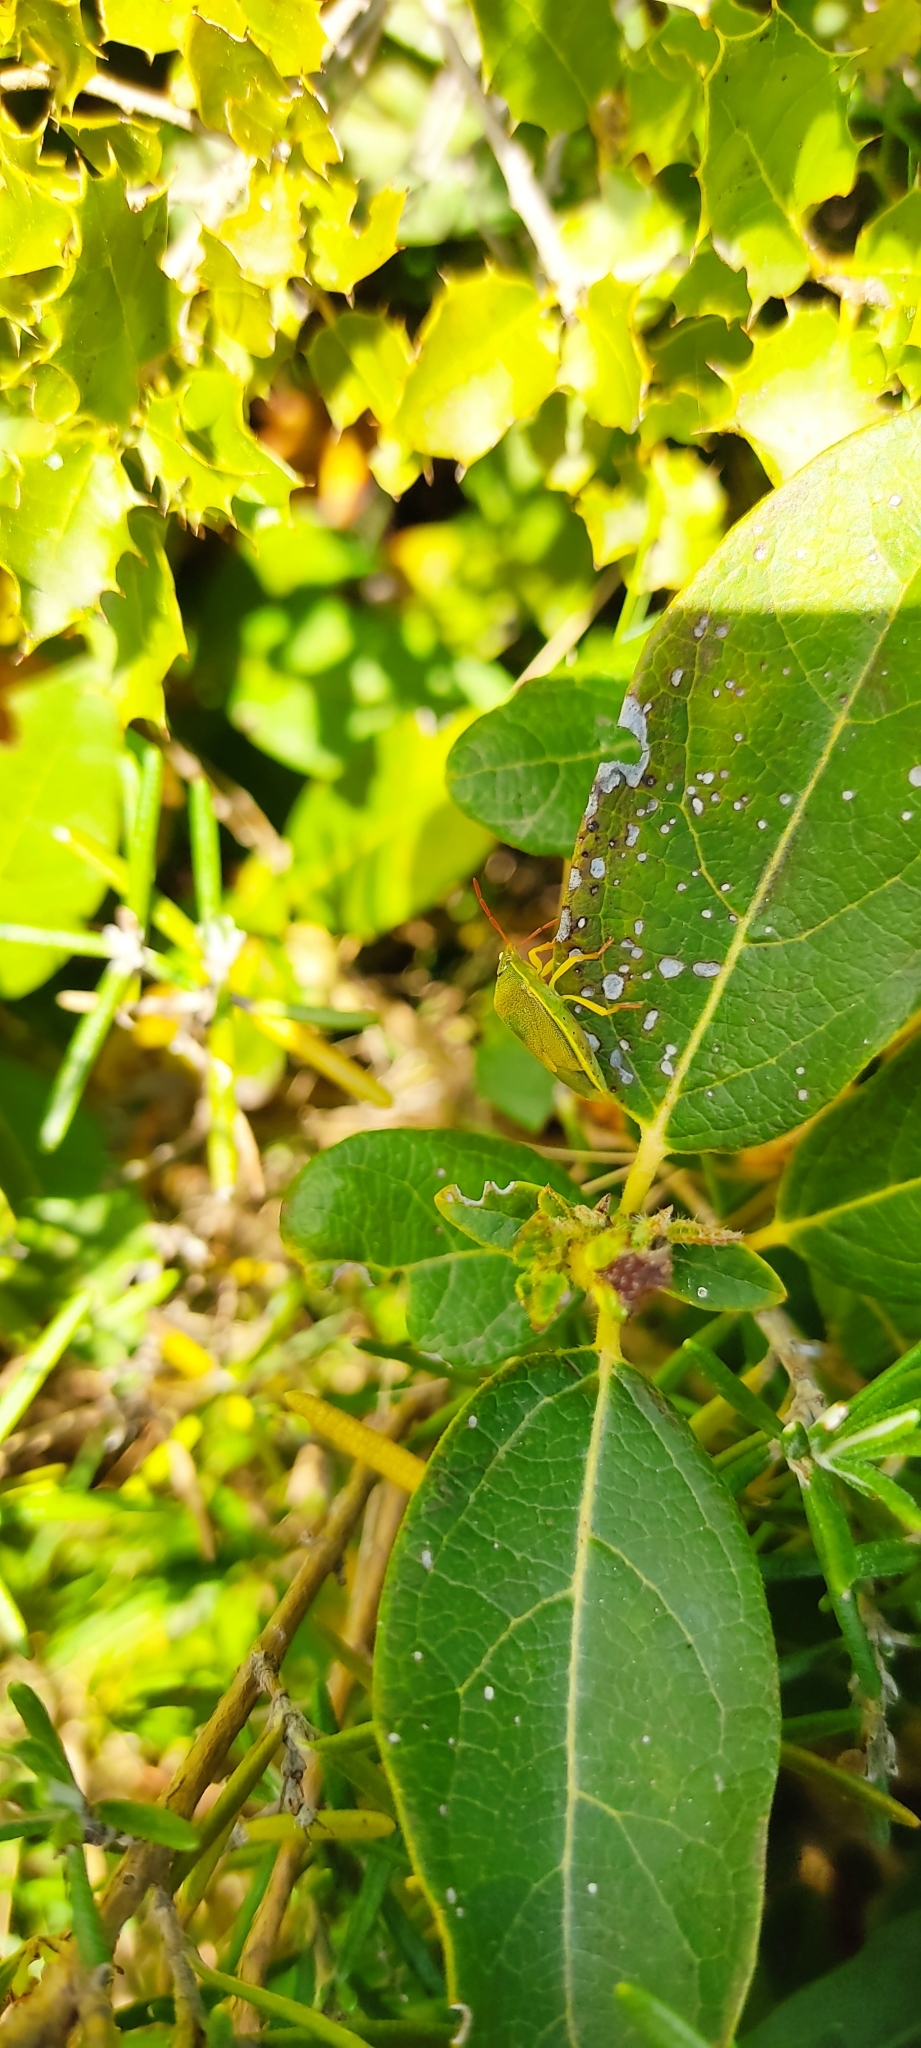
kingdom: Animalia
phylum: Arthropoda
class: Insecta
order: Hemiptera
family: Pentatomidae
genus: Piezodorus
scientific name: Piezodorus lituratus
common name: Stink bug
